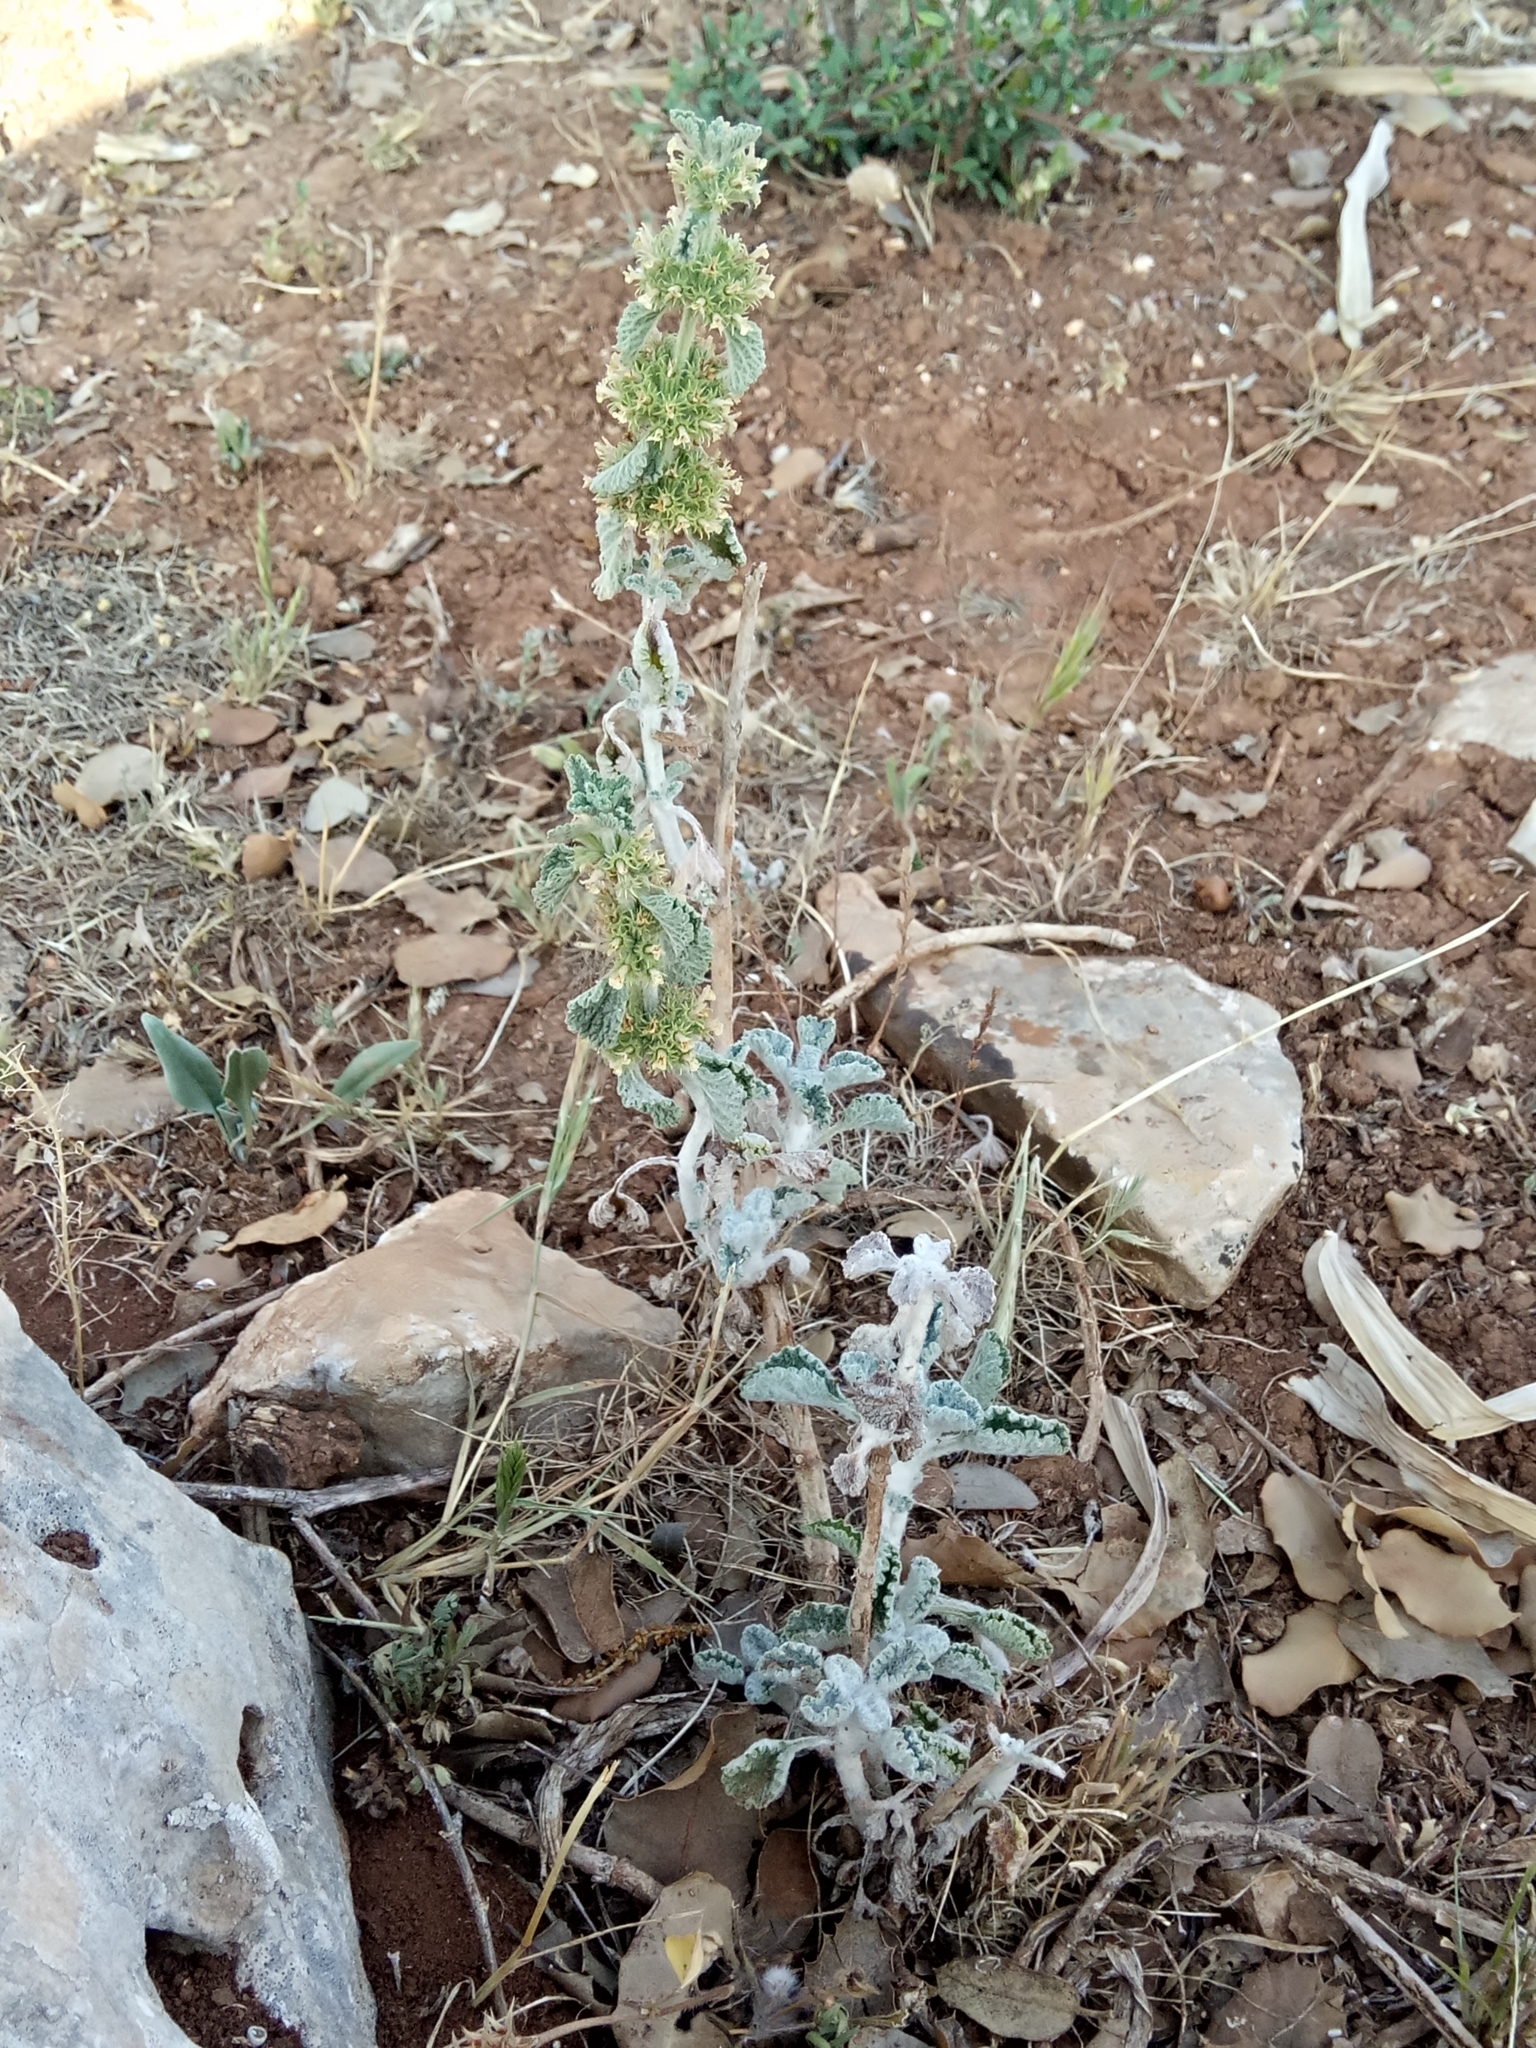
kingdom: Plantae
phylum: Tracheophyta
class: Magnoliopsida
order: Lamiales
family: Lamiaceae
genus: Marrubium
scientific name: Marrubium vulgare
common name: Horehound
